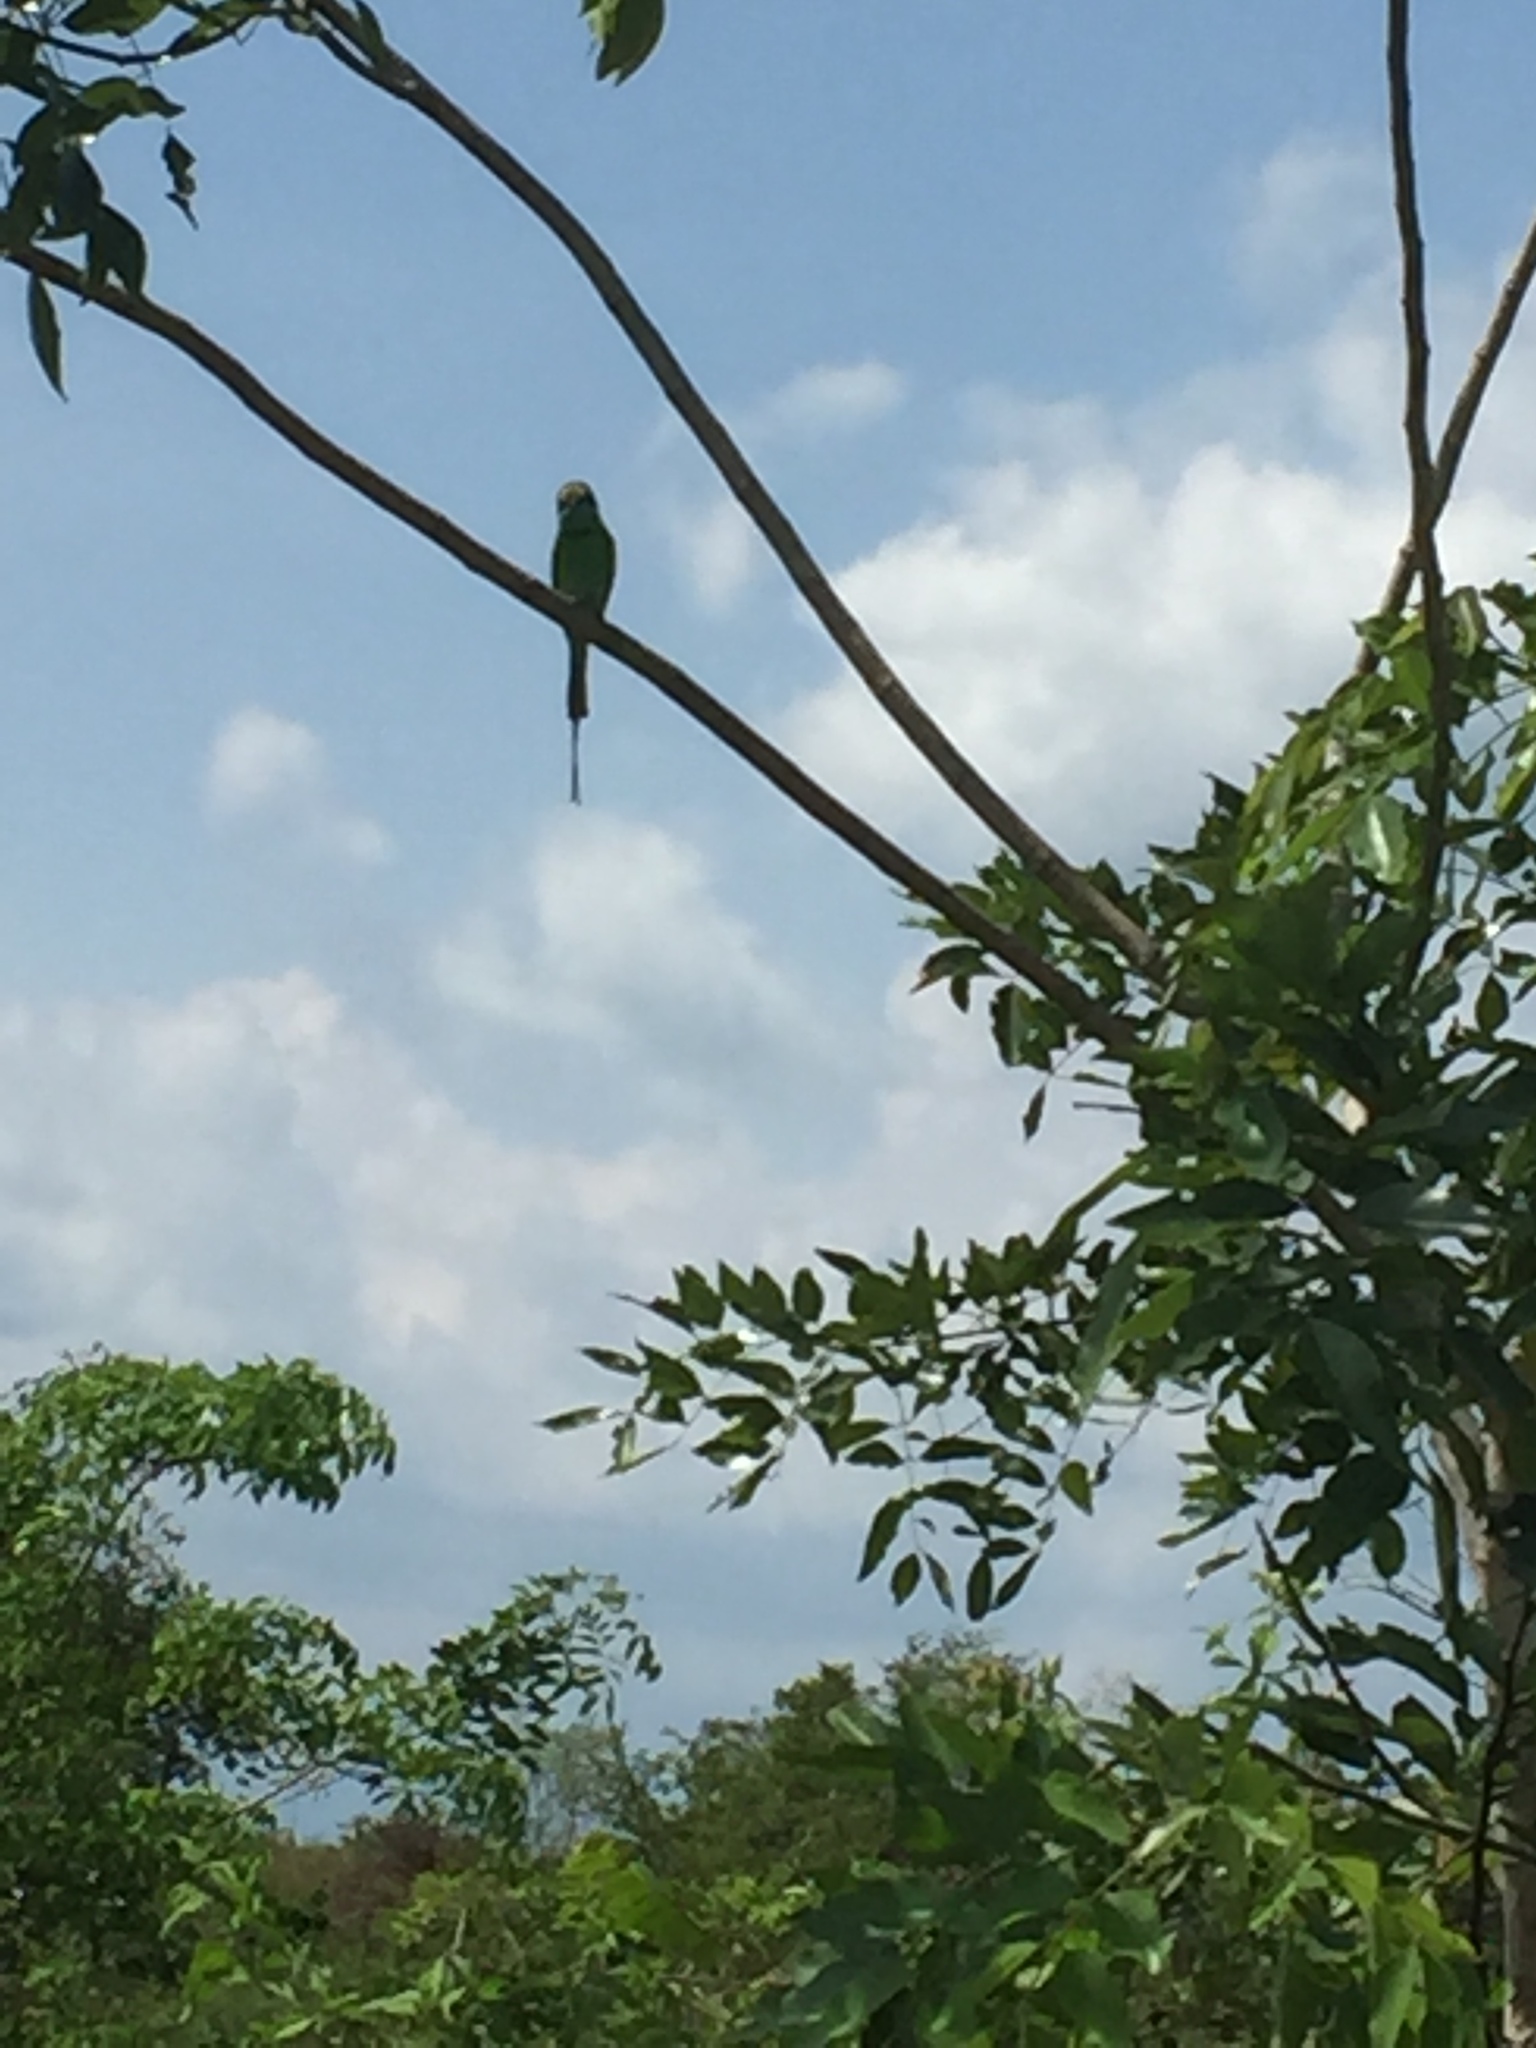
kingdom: Animalia
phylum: Chordata
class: Aves
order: Coraciiformes
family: Meropidae
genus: Merops
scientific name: Merops orientalis
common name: Green bee-eater
